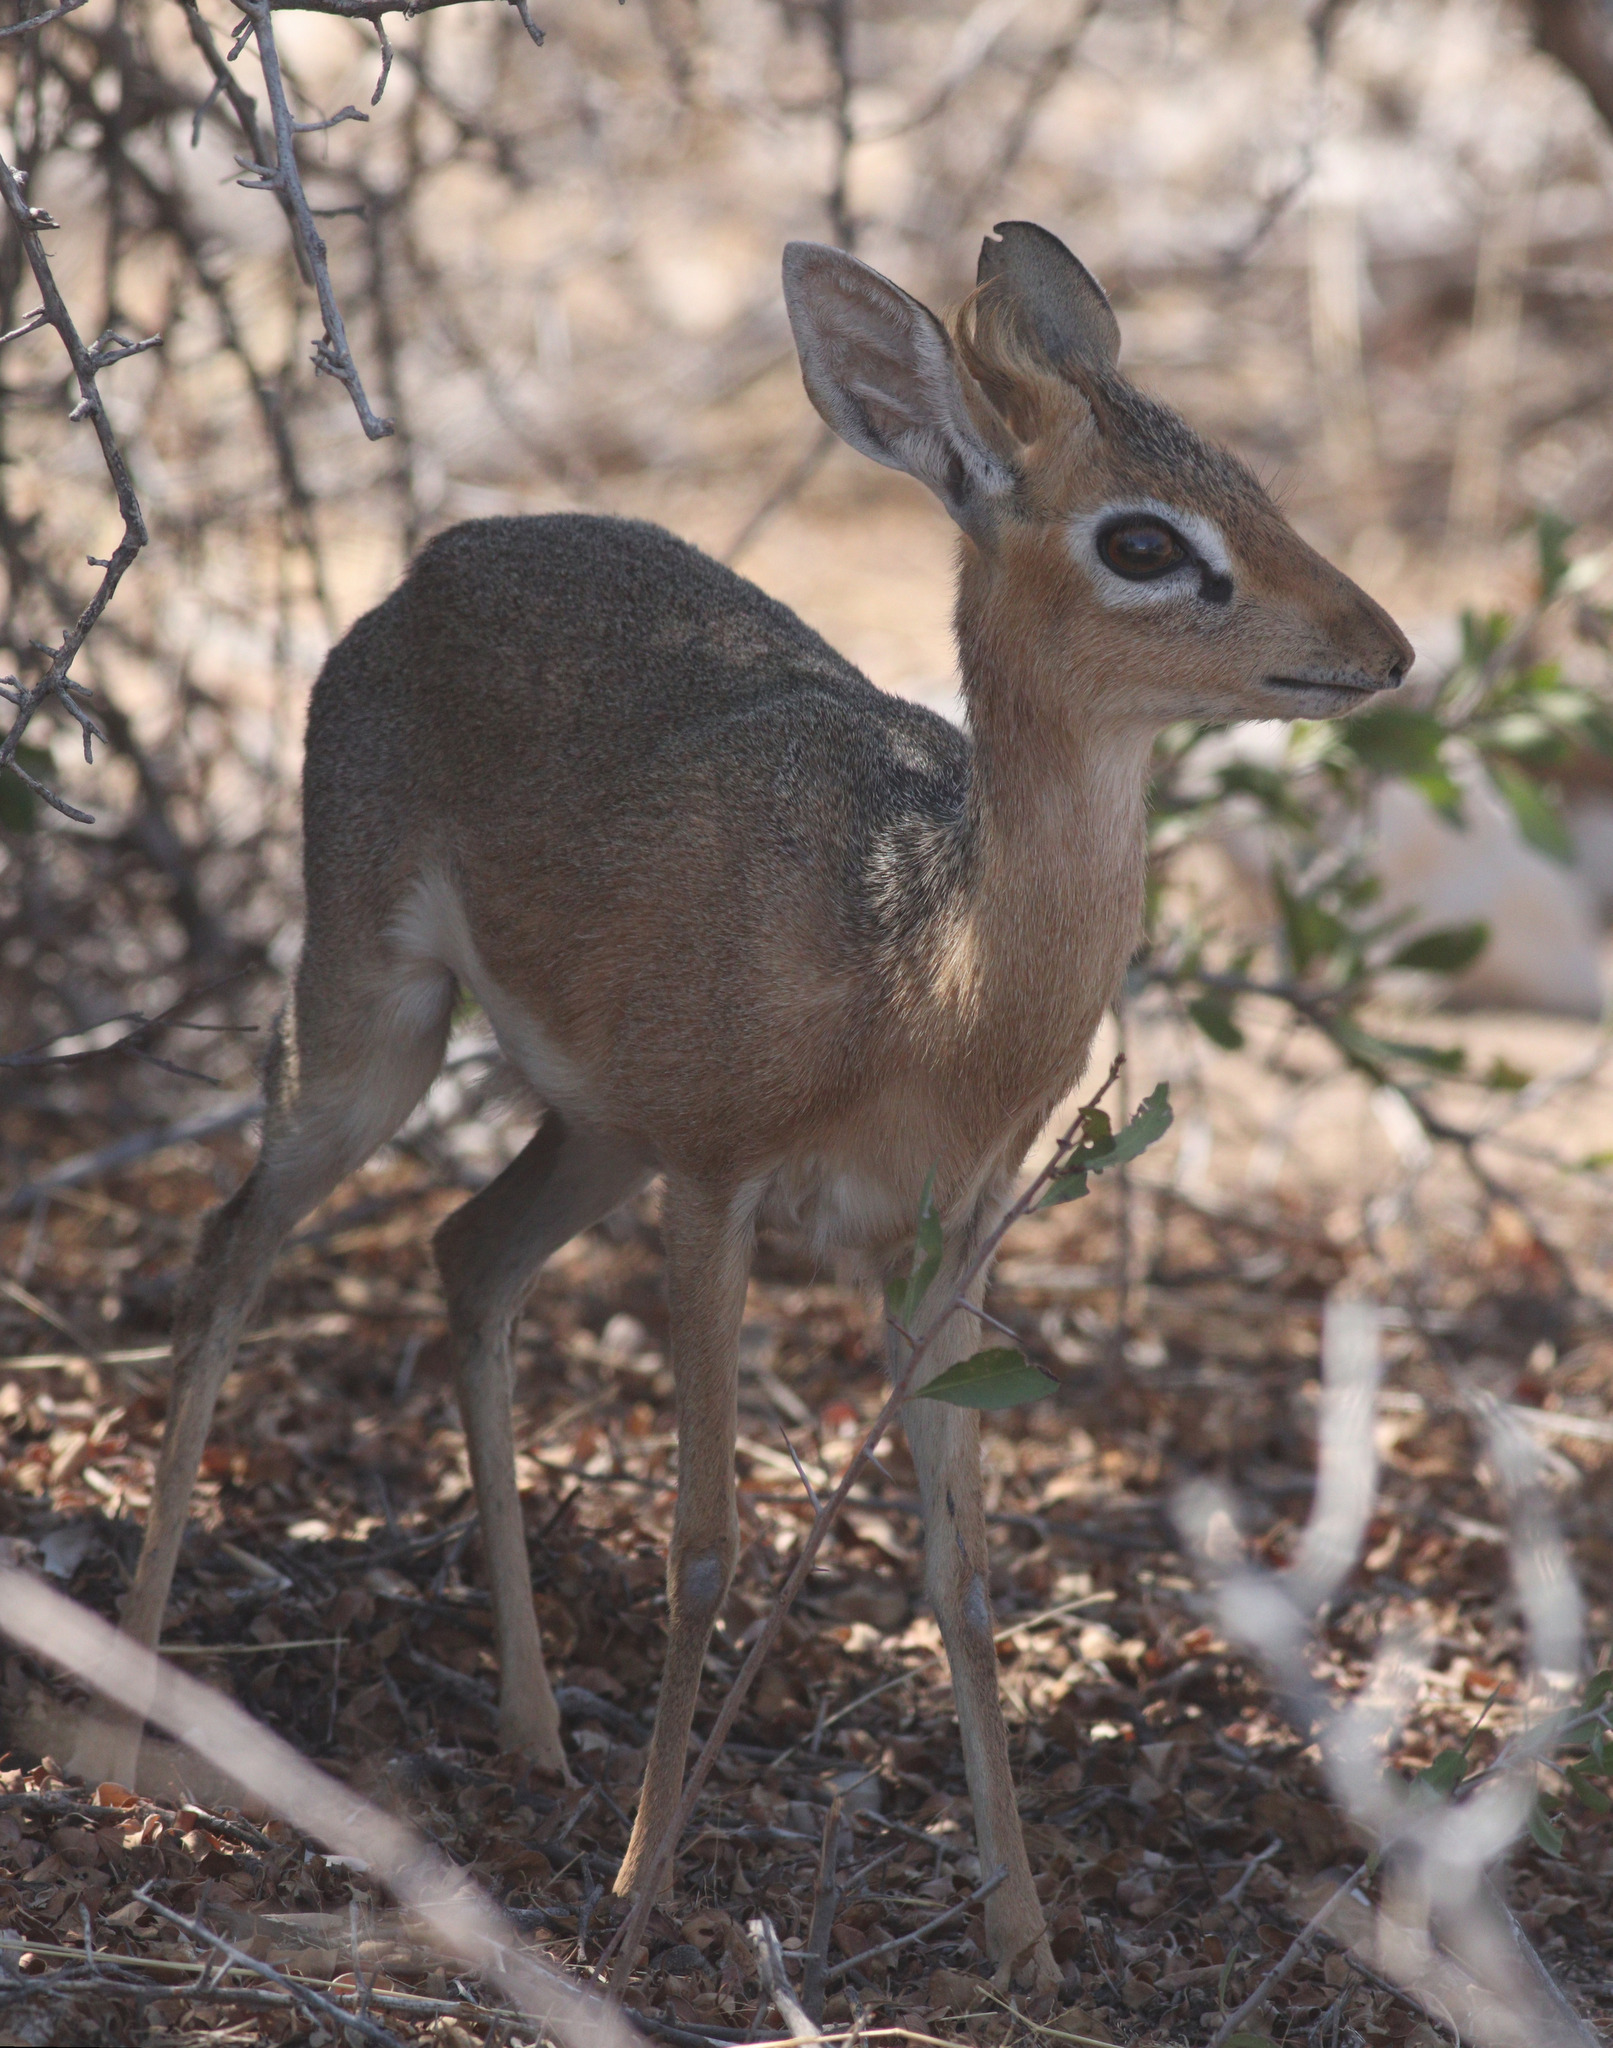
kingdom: Animalia
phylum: Chordata
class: Mammalia
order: Artiodactyla
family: Bovidae
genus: Madoqua
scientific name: Madoqua kirkii
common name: Kirk's dik-dik
